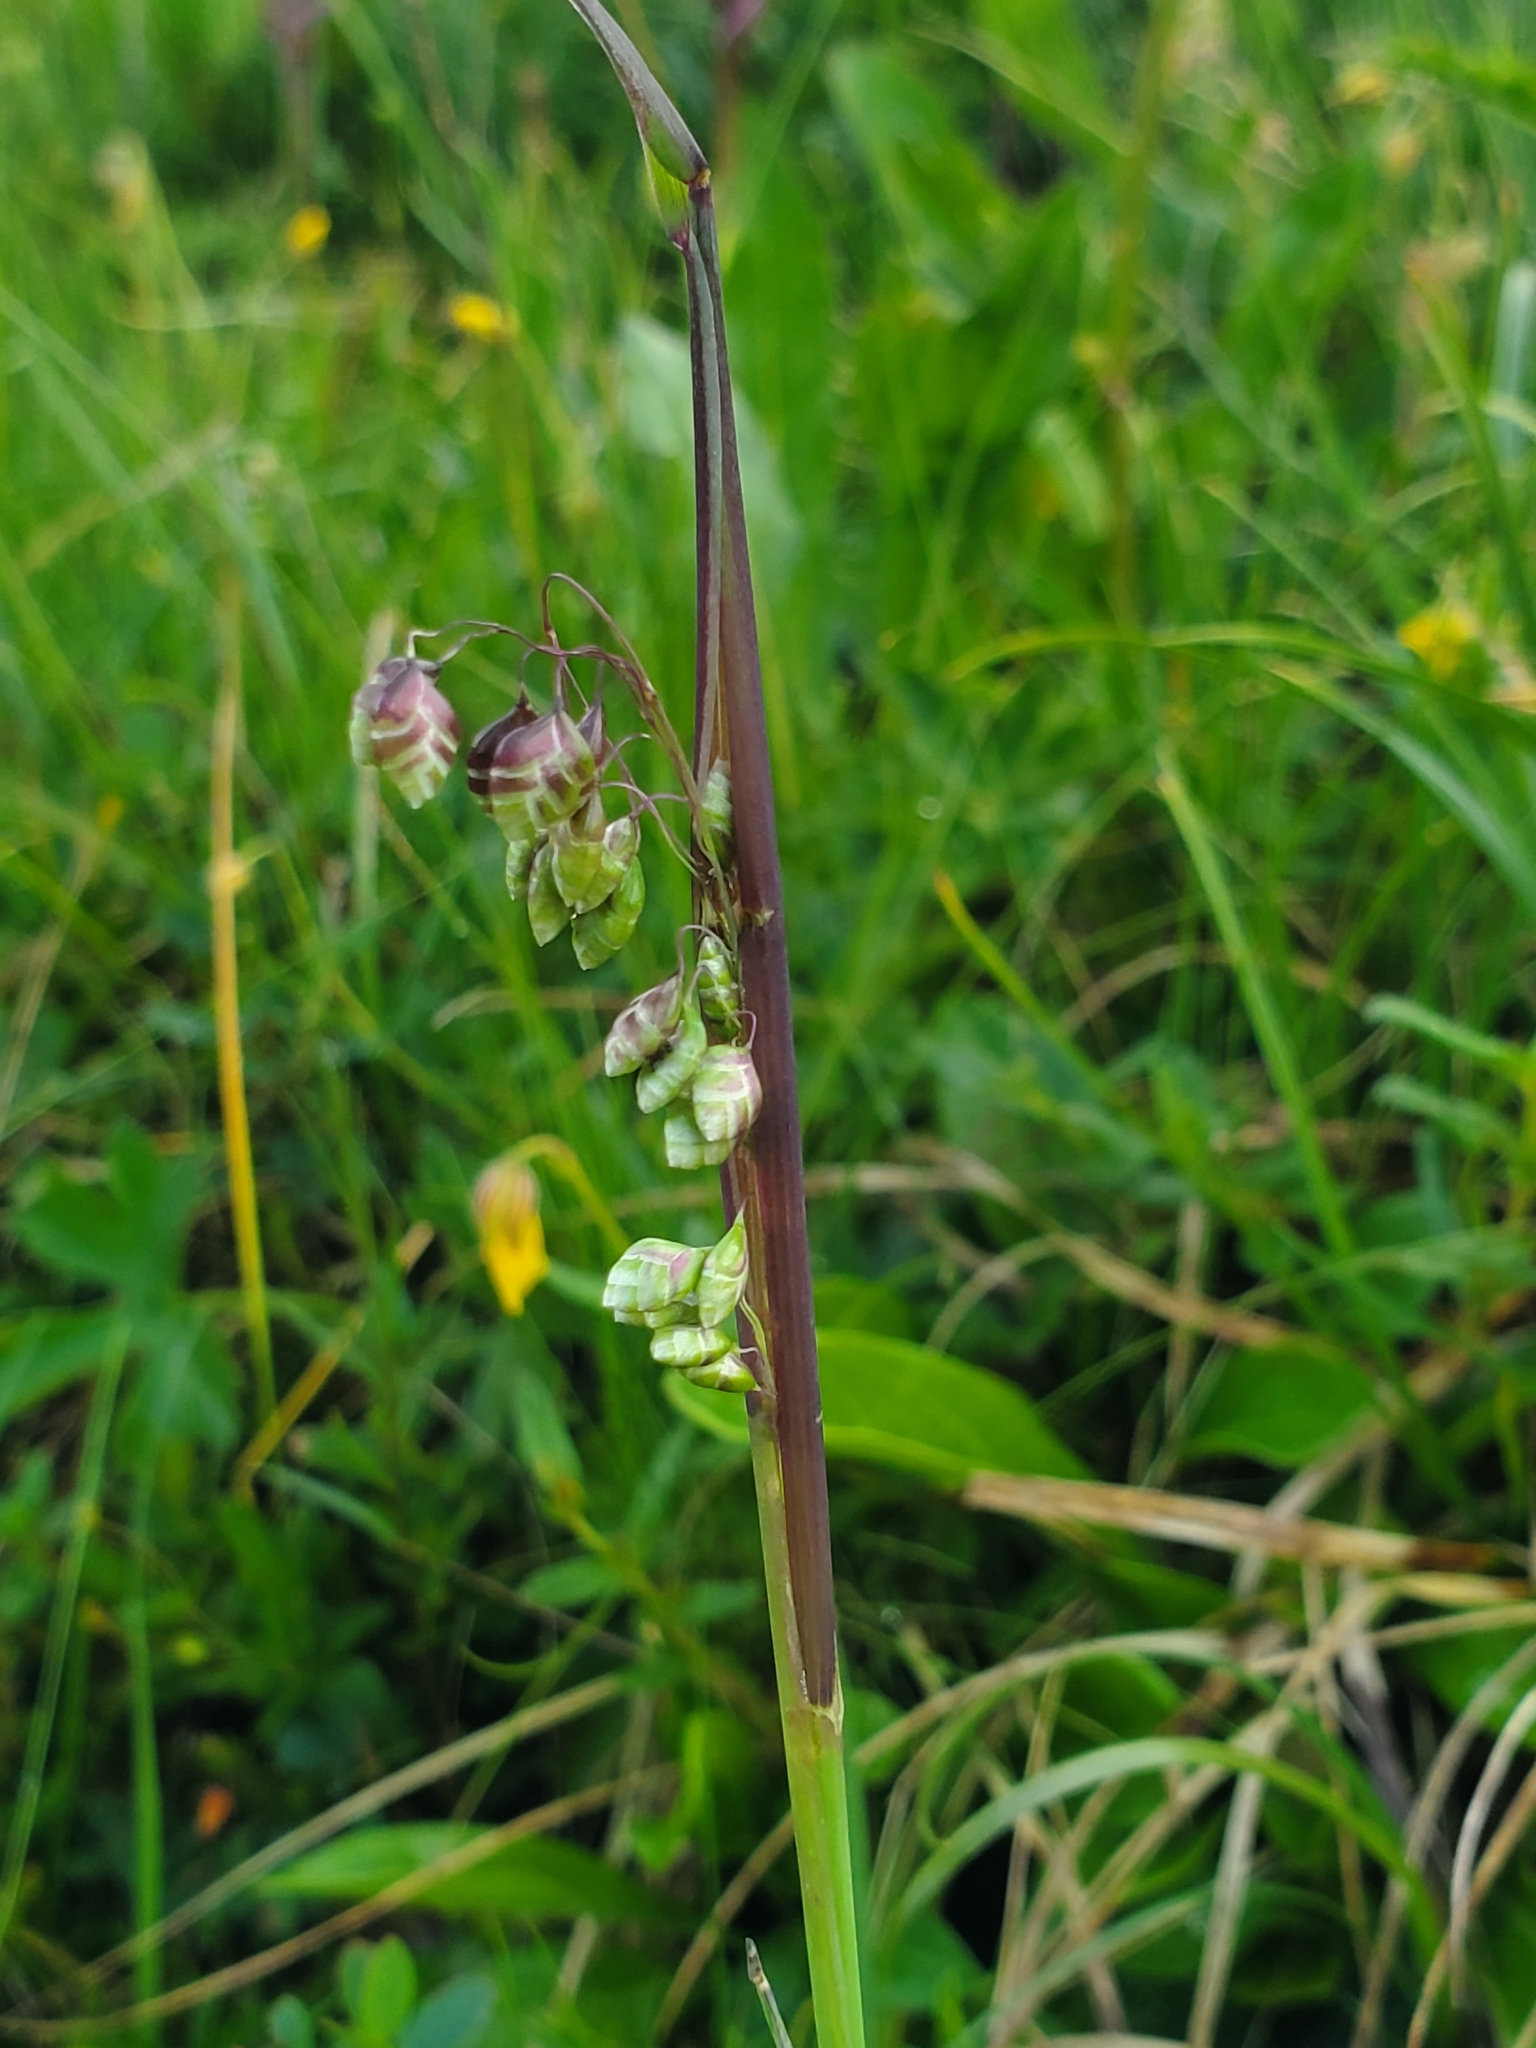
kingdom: Plantae
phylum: Tracheophyta
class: Liliopsida
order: Poales
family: Poaceae
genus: Briza
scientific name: Briza media
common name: Quaking grass
